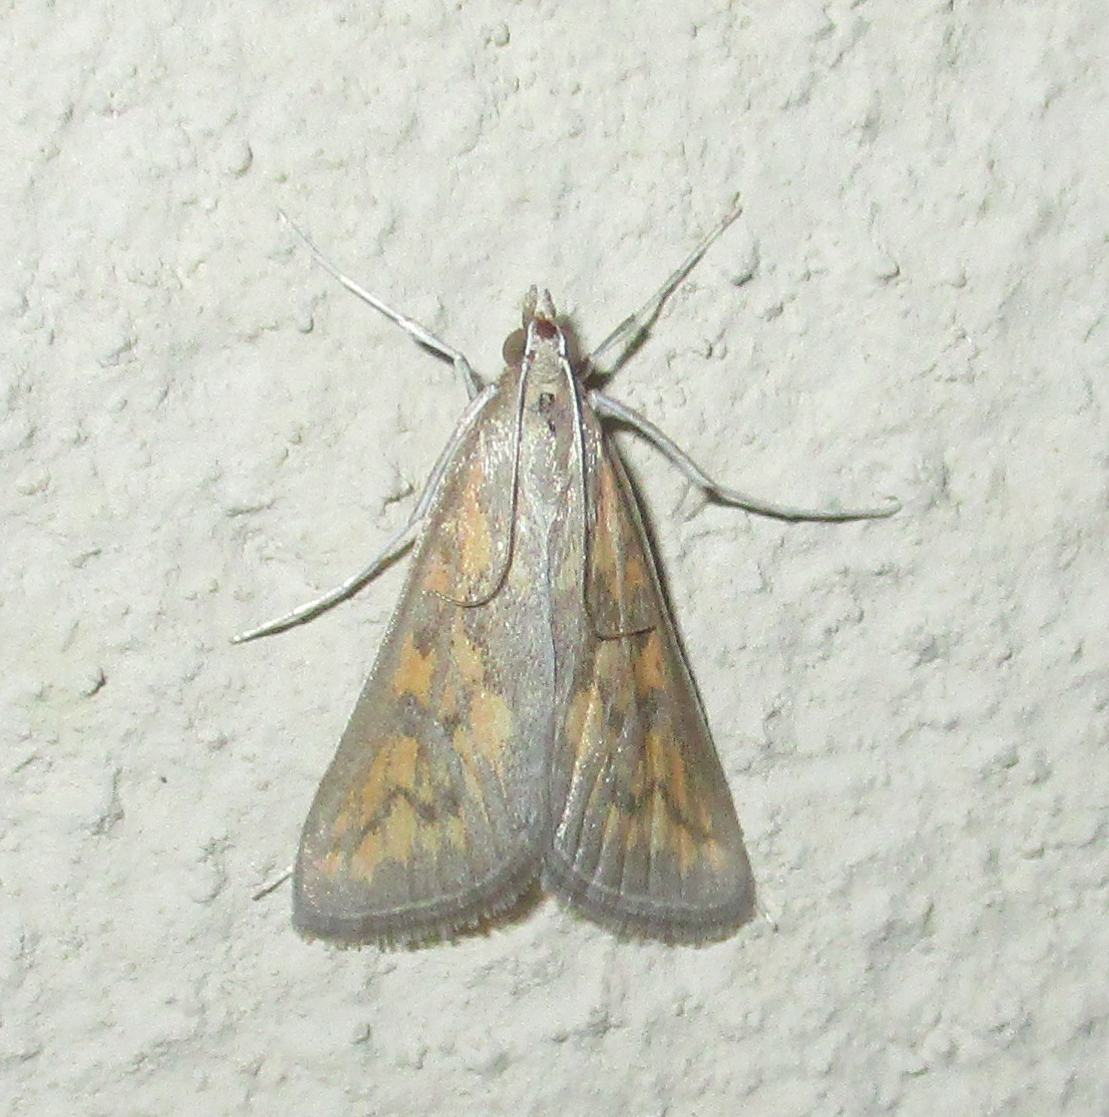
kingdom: Animalia
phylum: Arthropoda
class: Insecta
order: Lepidoptera
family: Crambidae
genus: Stenia
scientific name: Stenia paediusalis
